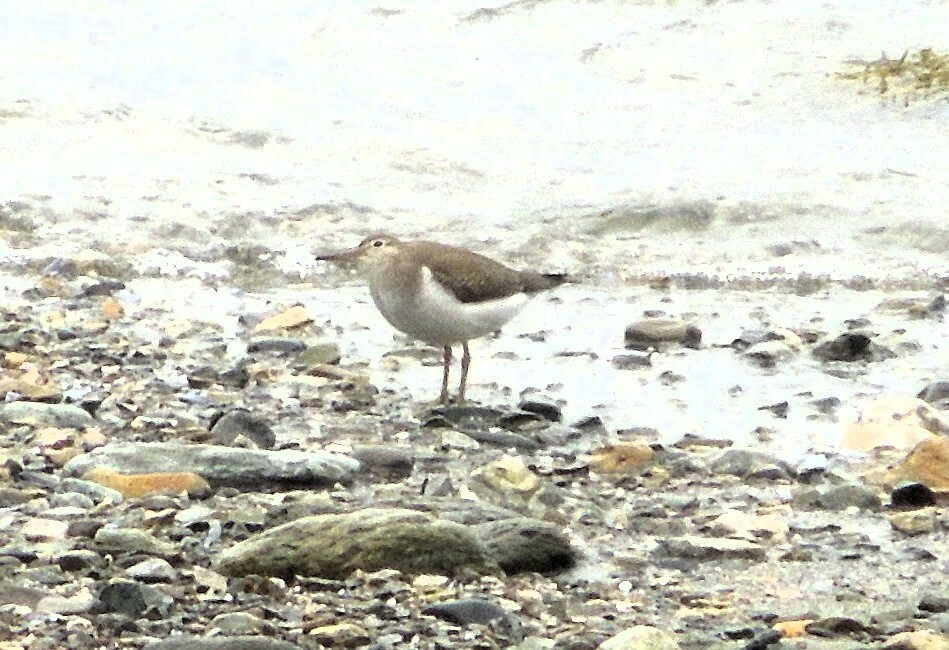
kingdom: Animalia
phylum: Chordata
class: Aves
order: Charadriiformes
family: Scolopacidae
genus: Actitis
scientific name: Actitis macularius
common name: Spotted sandpiper
